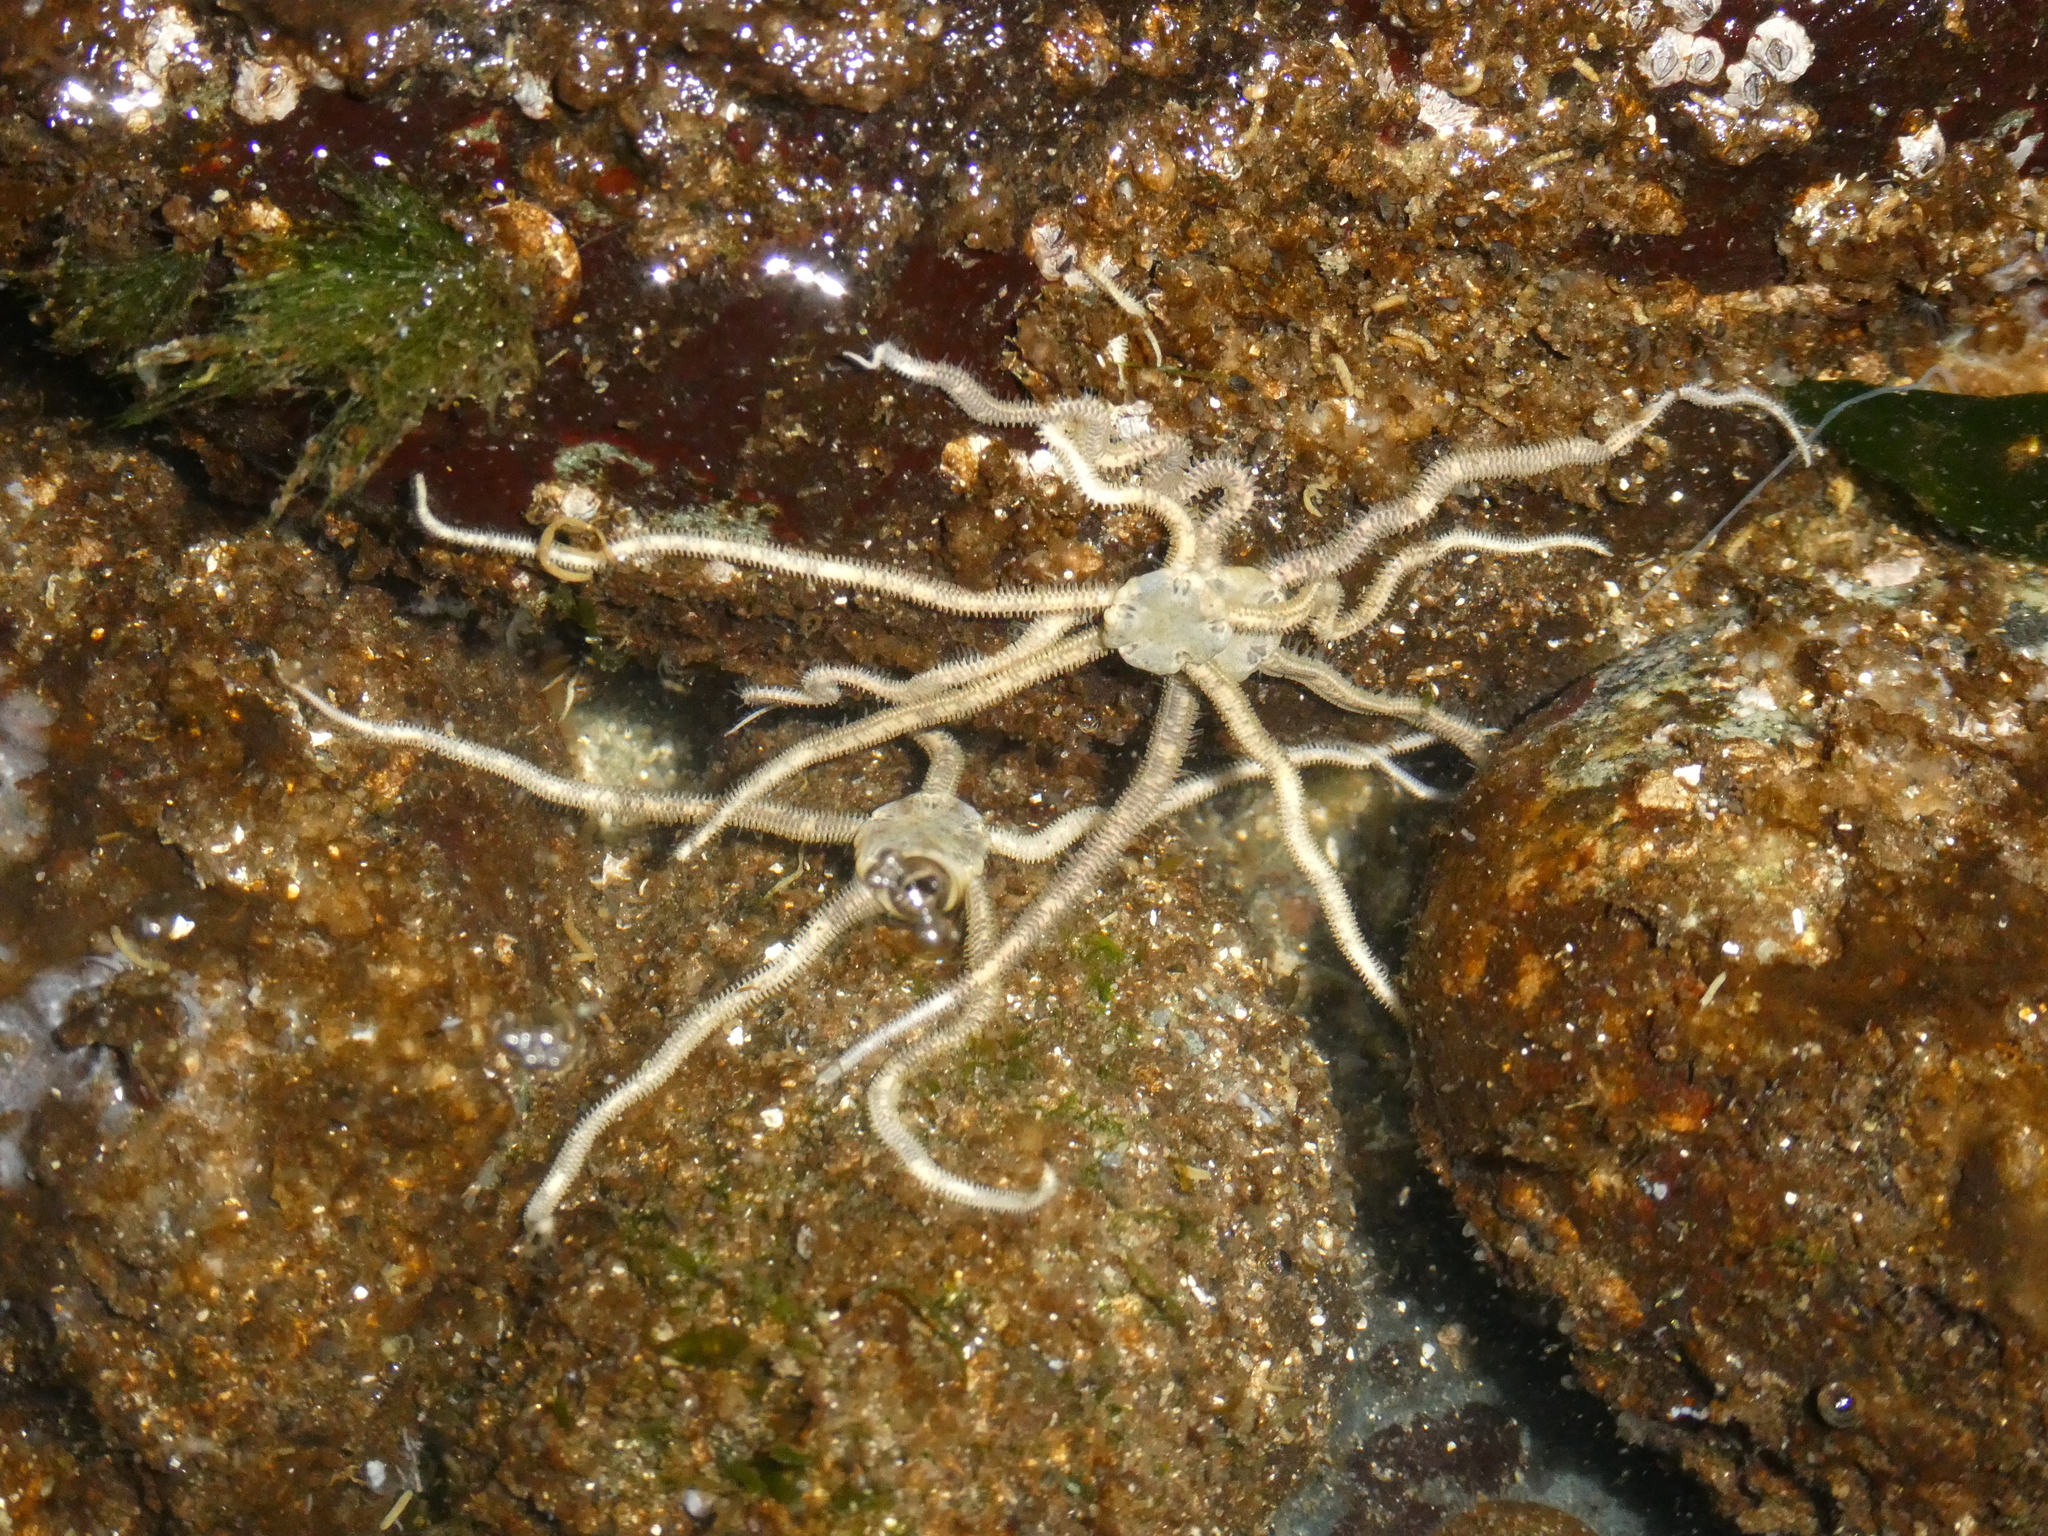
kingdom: Animalia
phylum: Echinodermata
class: Ophiuroidea
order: Amphilepidida
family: Amphiuridae
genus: Amphiodia
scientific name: Amphiodia occidentalis
